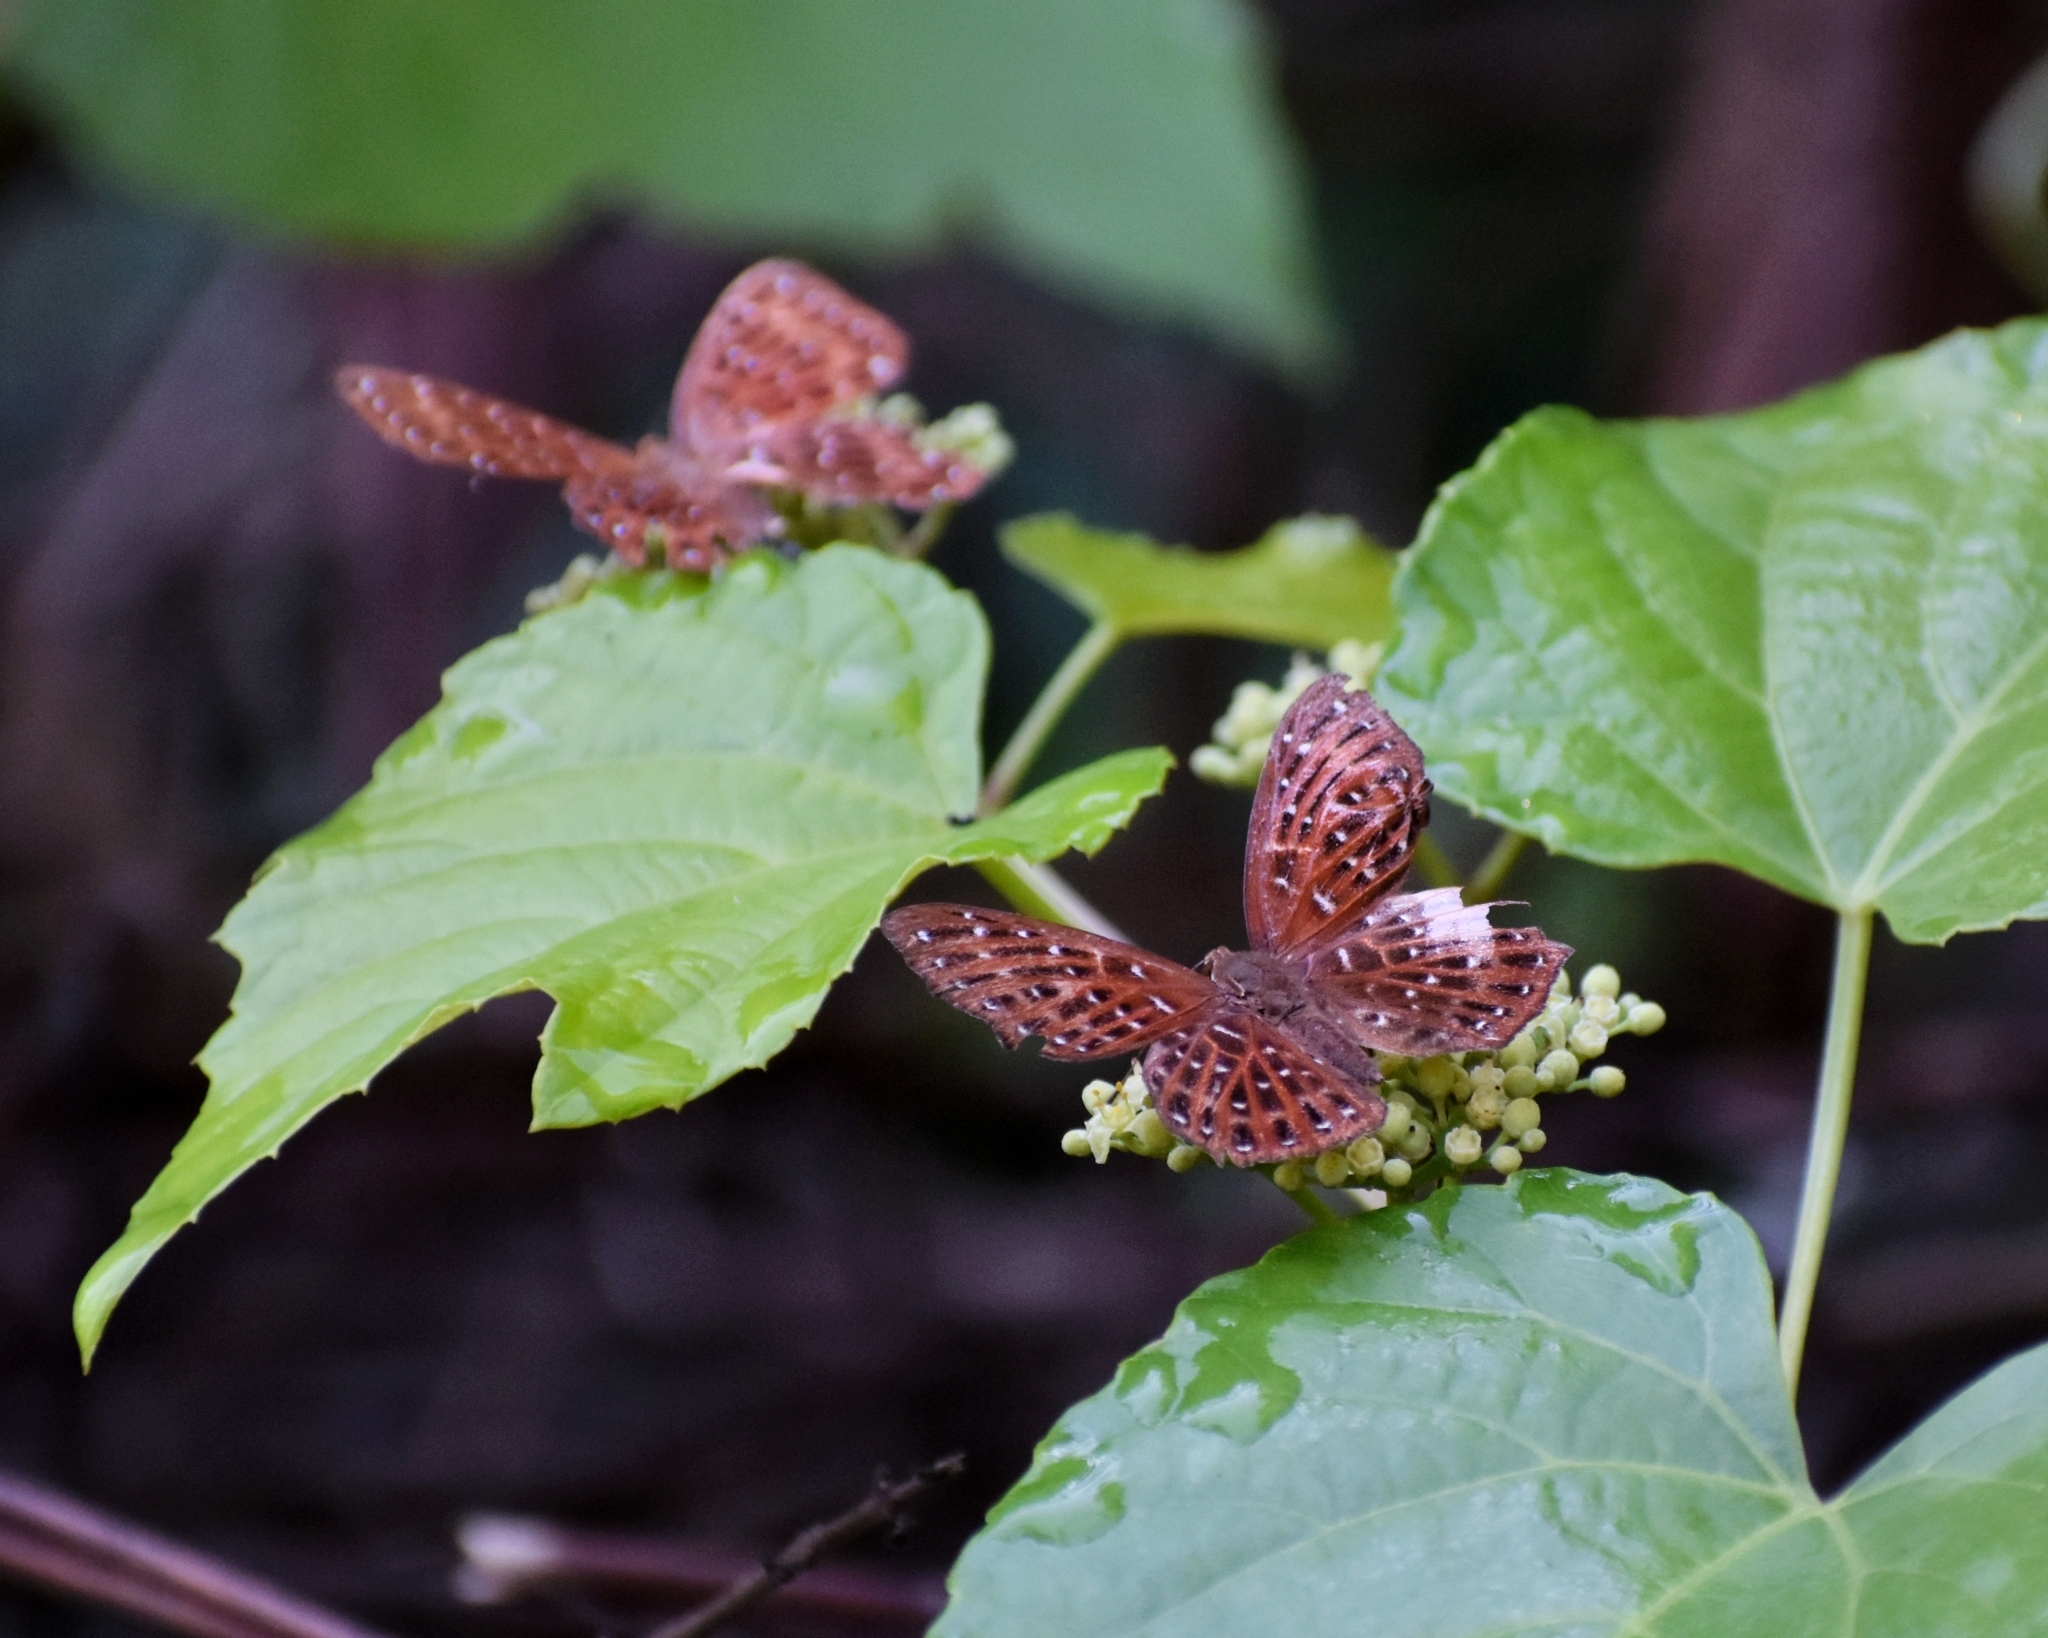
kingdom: Animalia
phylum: Arthropoda
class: Insecta
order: Lepidoptera
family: Riodinidae
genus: Zemeros
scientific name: Zemeros flegyas
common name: Punchinello
